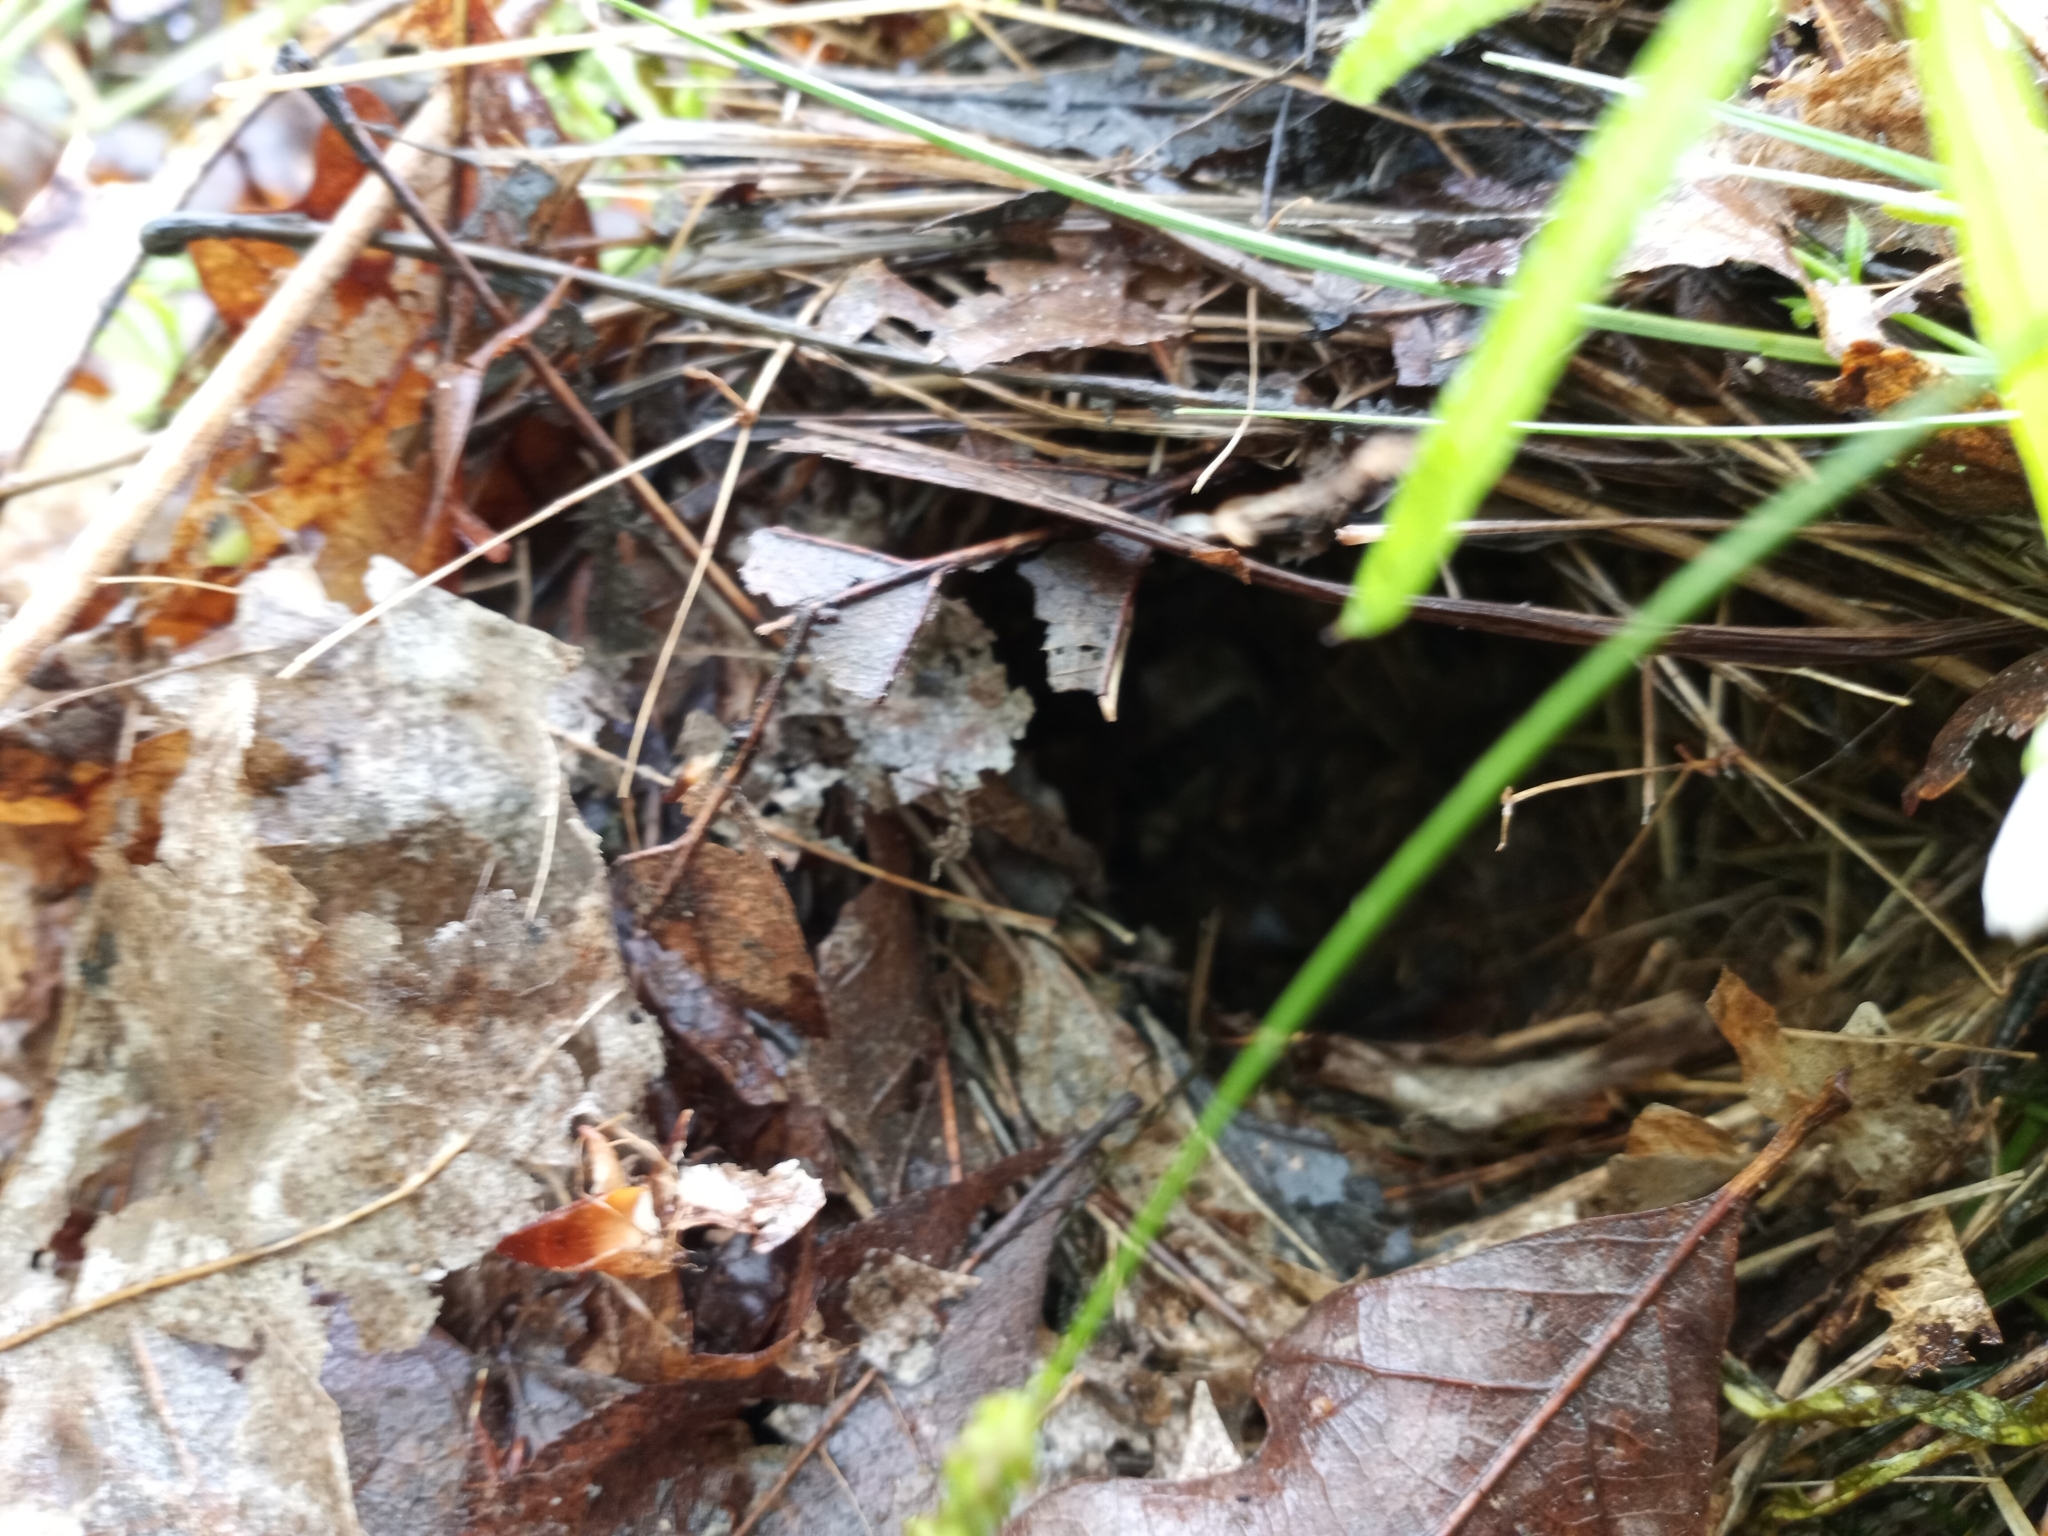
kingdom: Animalia
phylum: Chordata
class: Aves
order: Passeriformes
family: Parulidae
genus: Seiurus
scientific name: Seiurus aurocapilla
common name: Ovenbird
